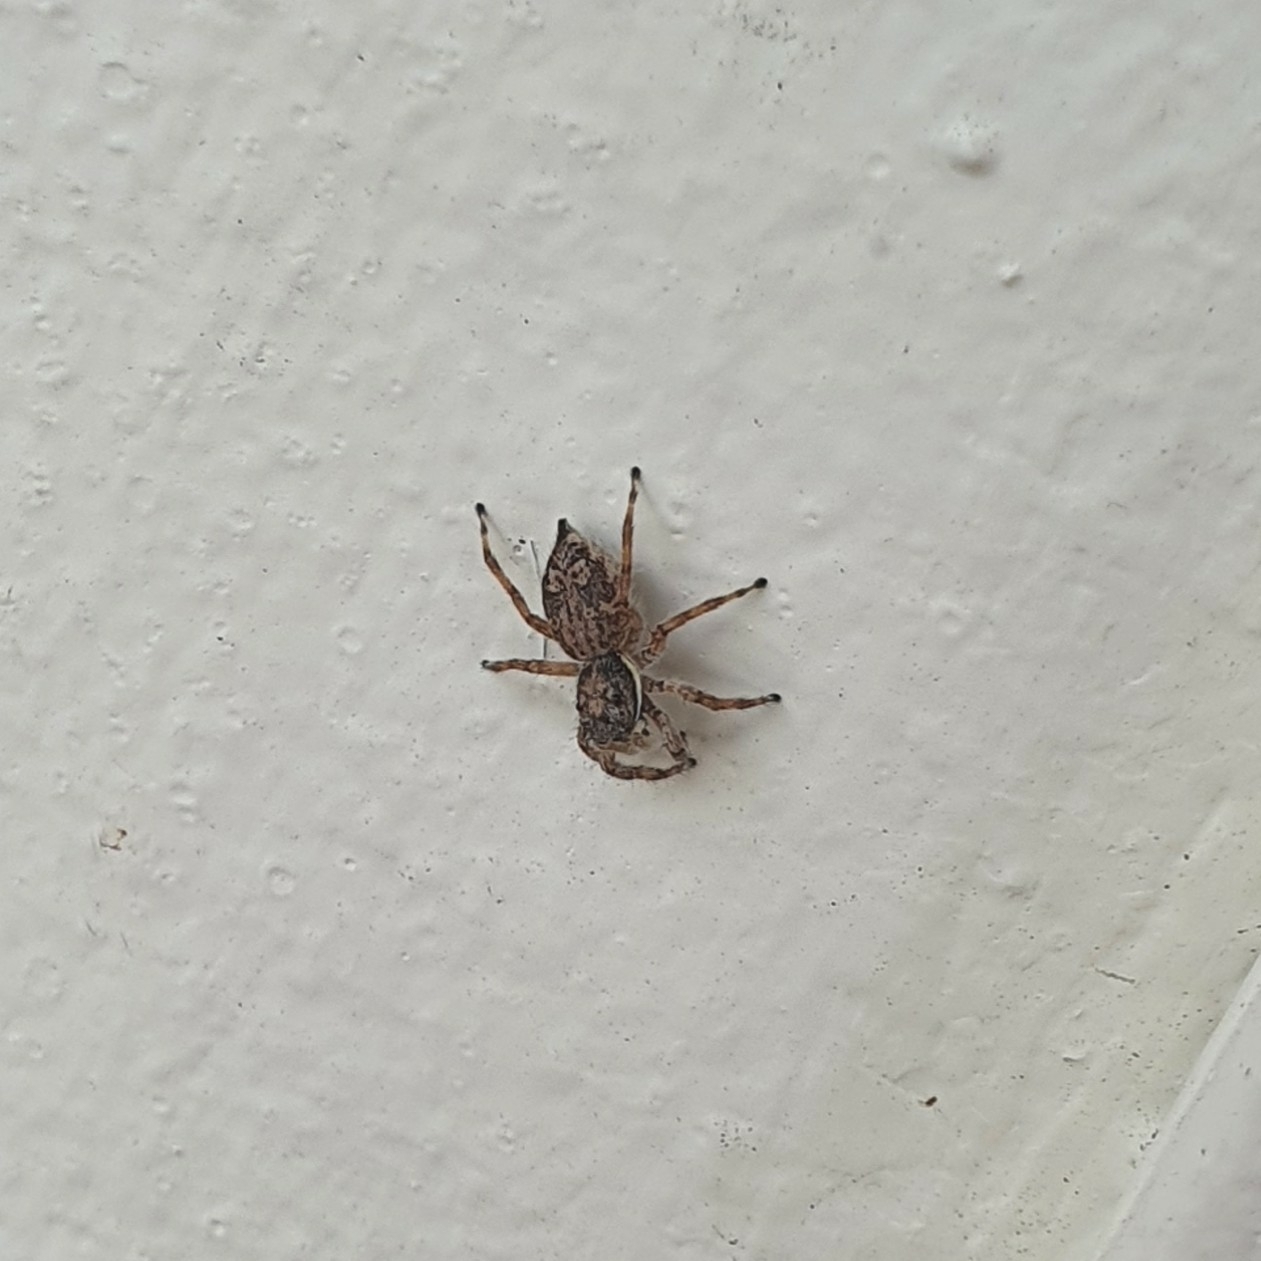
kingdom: Animalia
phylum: Arthropoda
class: Arachnida
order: Araneae
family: Salticidae
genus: Menemerus
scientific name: Menemerus nigli
